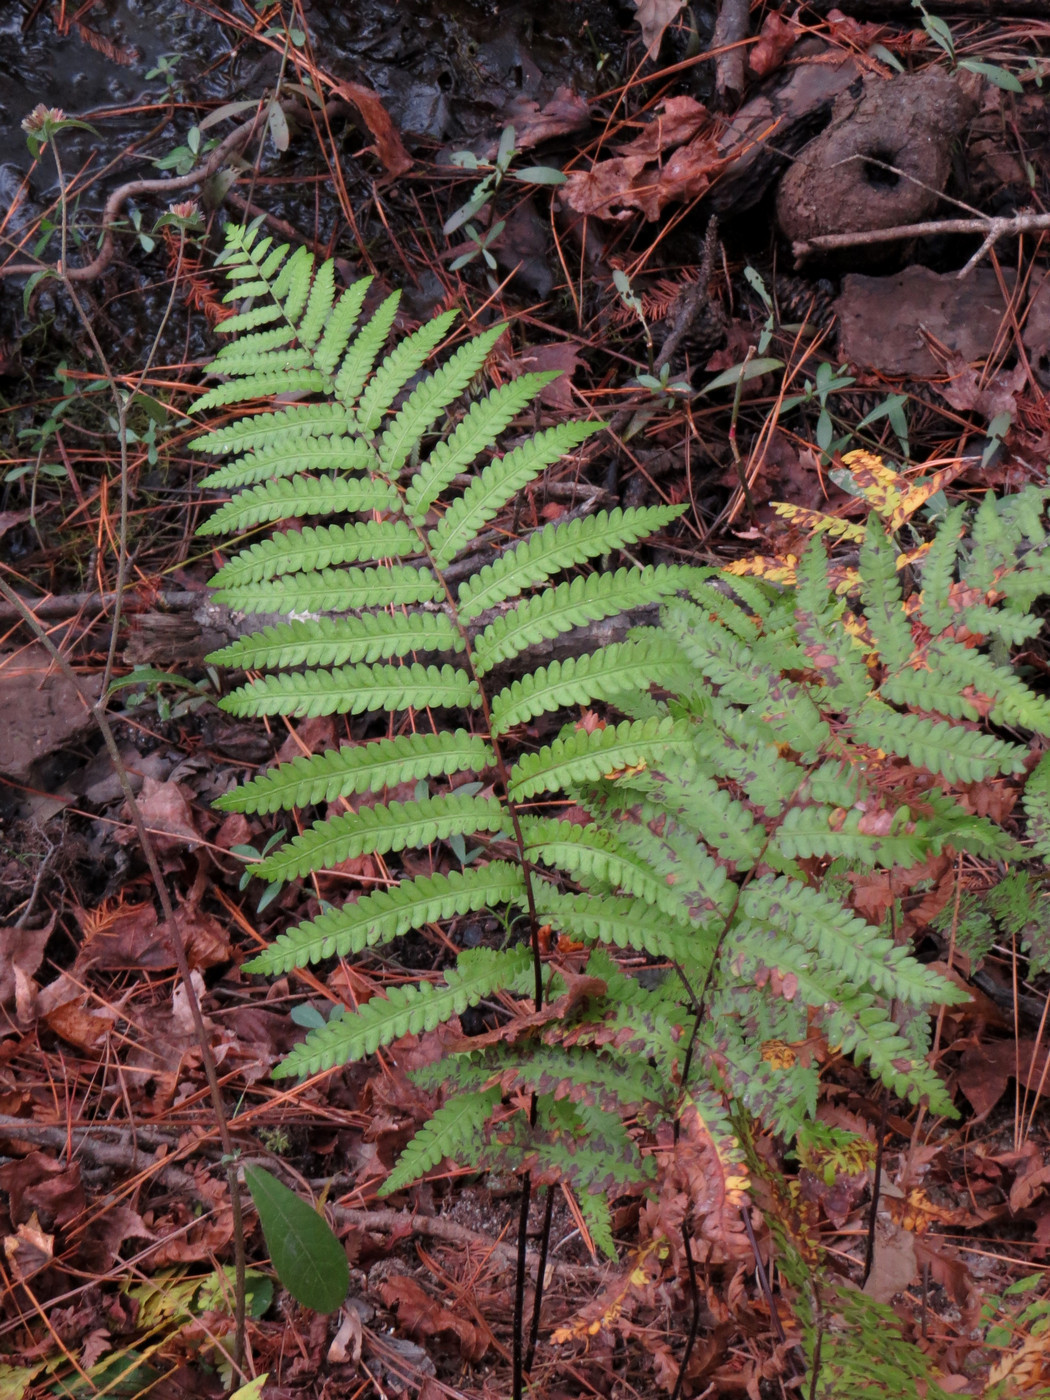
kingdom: Plantae
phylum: Tracheophyta
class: Polypodiopsida
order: Polypodiales
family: Blechnaceae
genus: Anchistea
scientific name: Anchistea virginica
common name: Virginia chain fern
